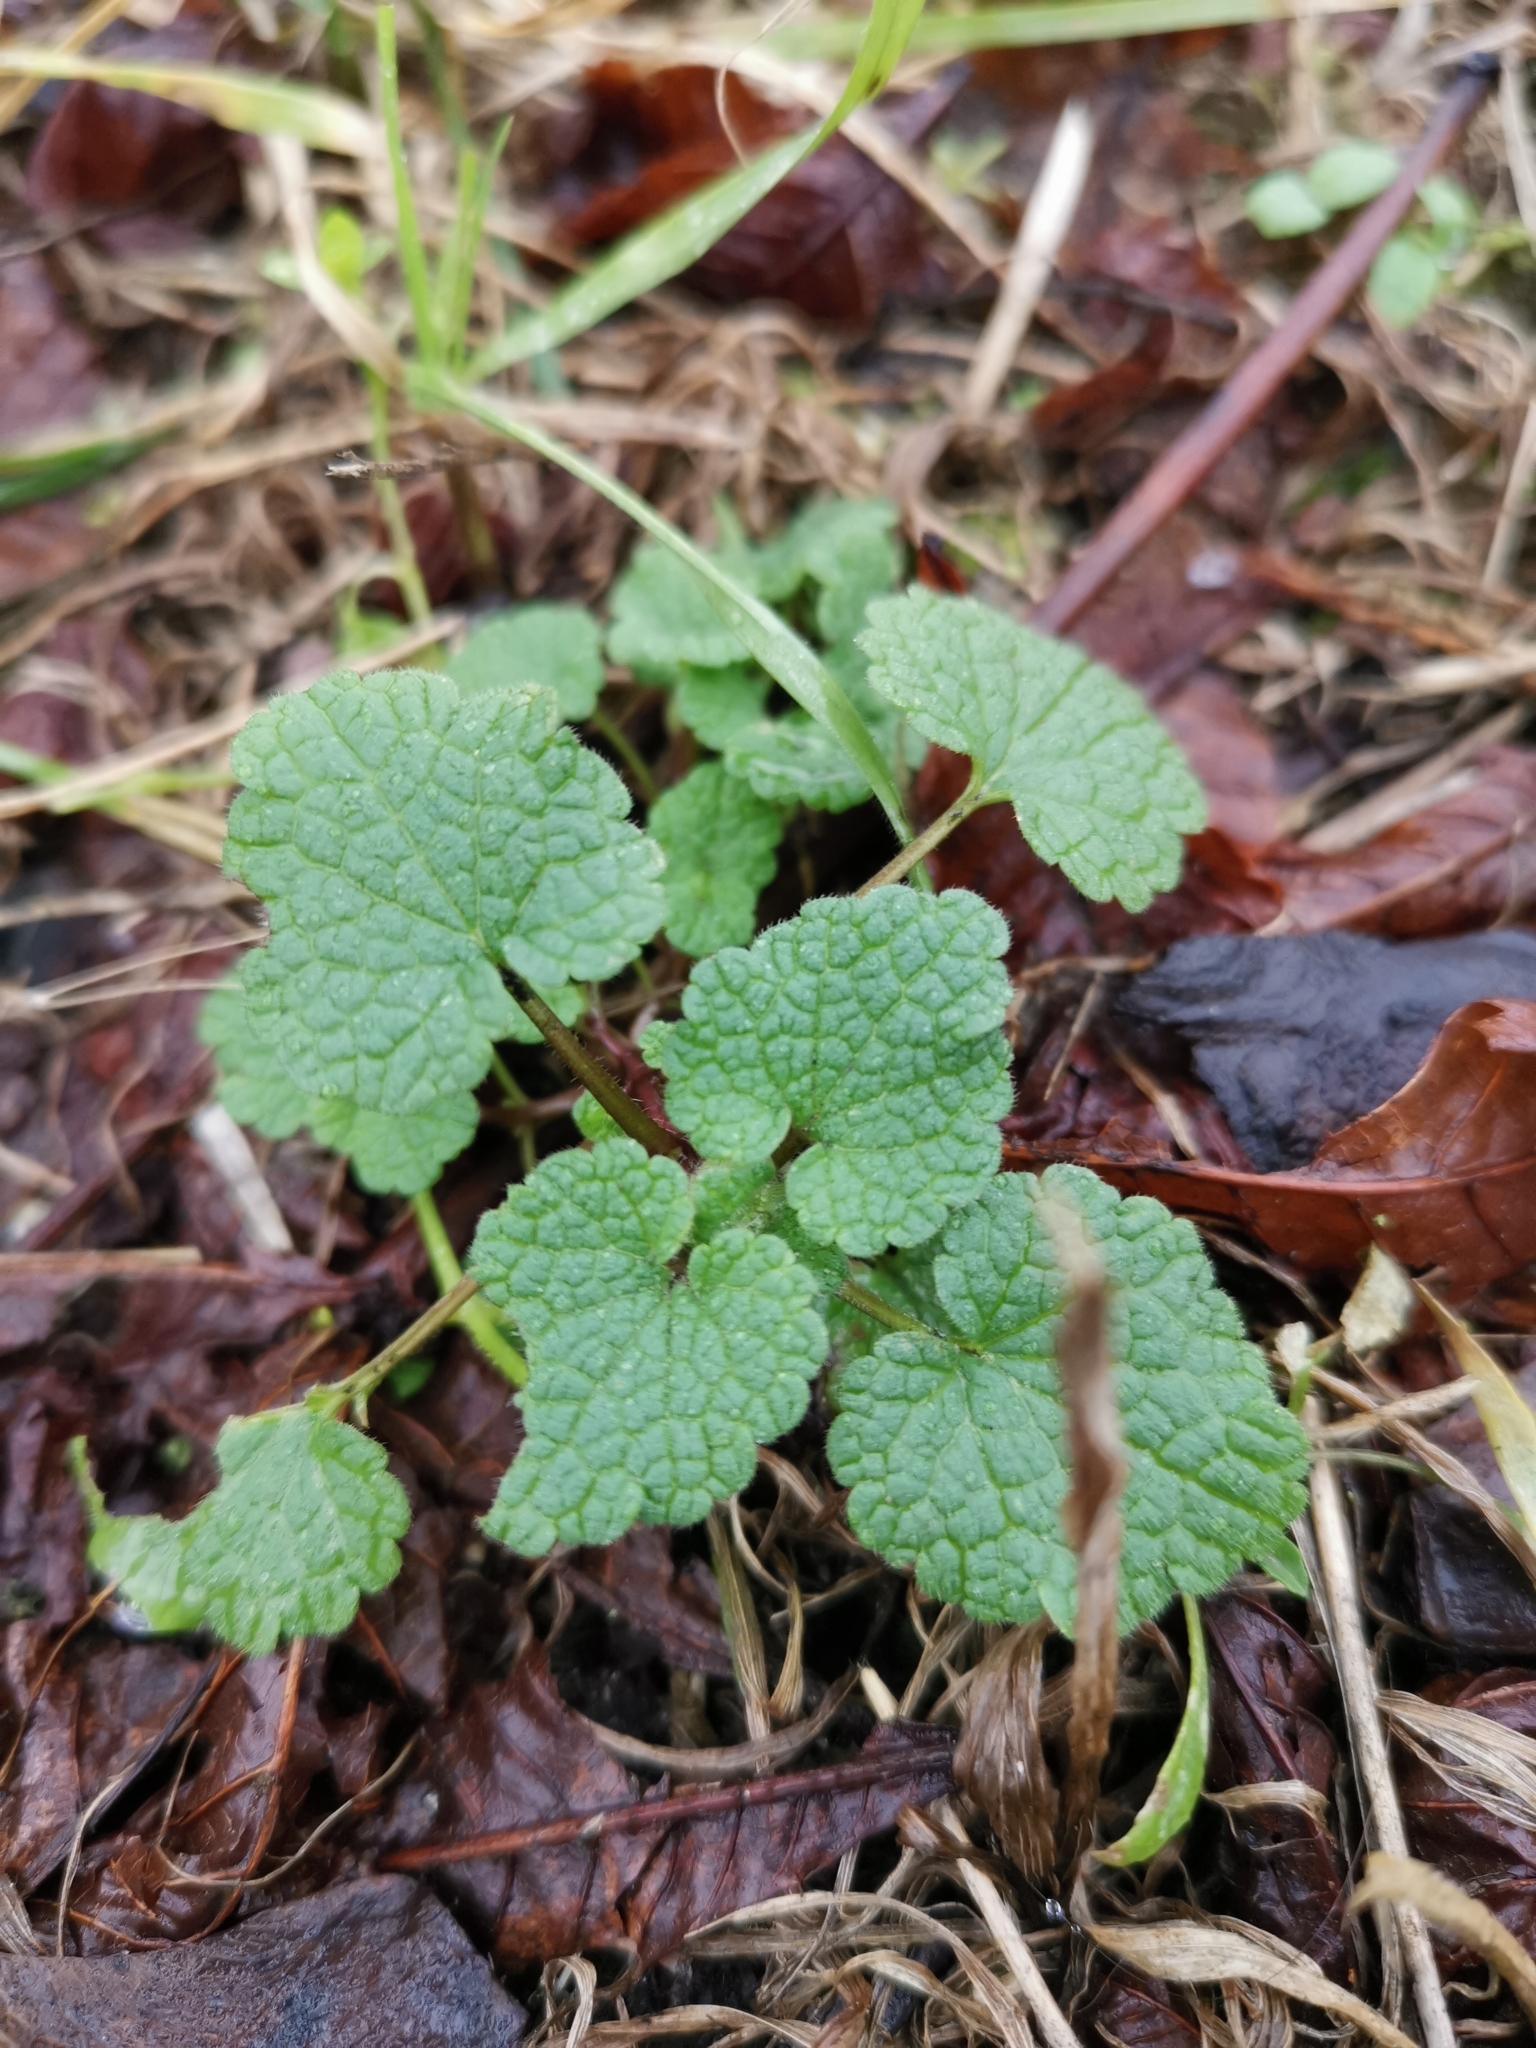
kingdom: Plantae
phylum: Tracheophyta
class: Magnoliopsida
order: Lamiales
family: Lamiaceae
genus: Lamium
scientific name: Lamium purpureum
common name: Red dead-nettle
